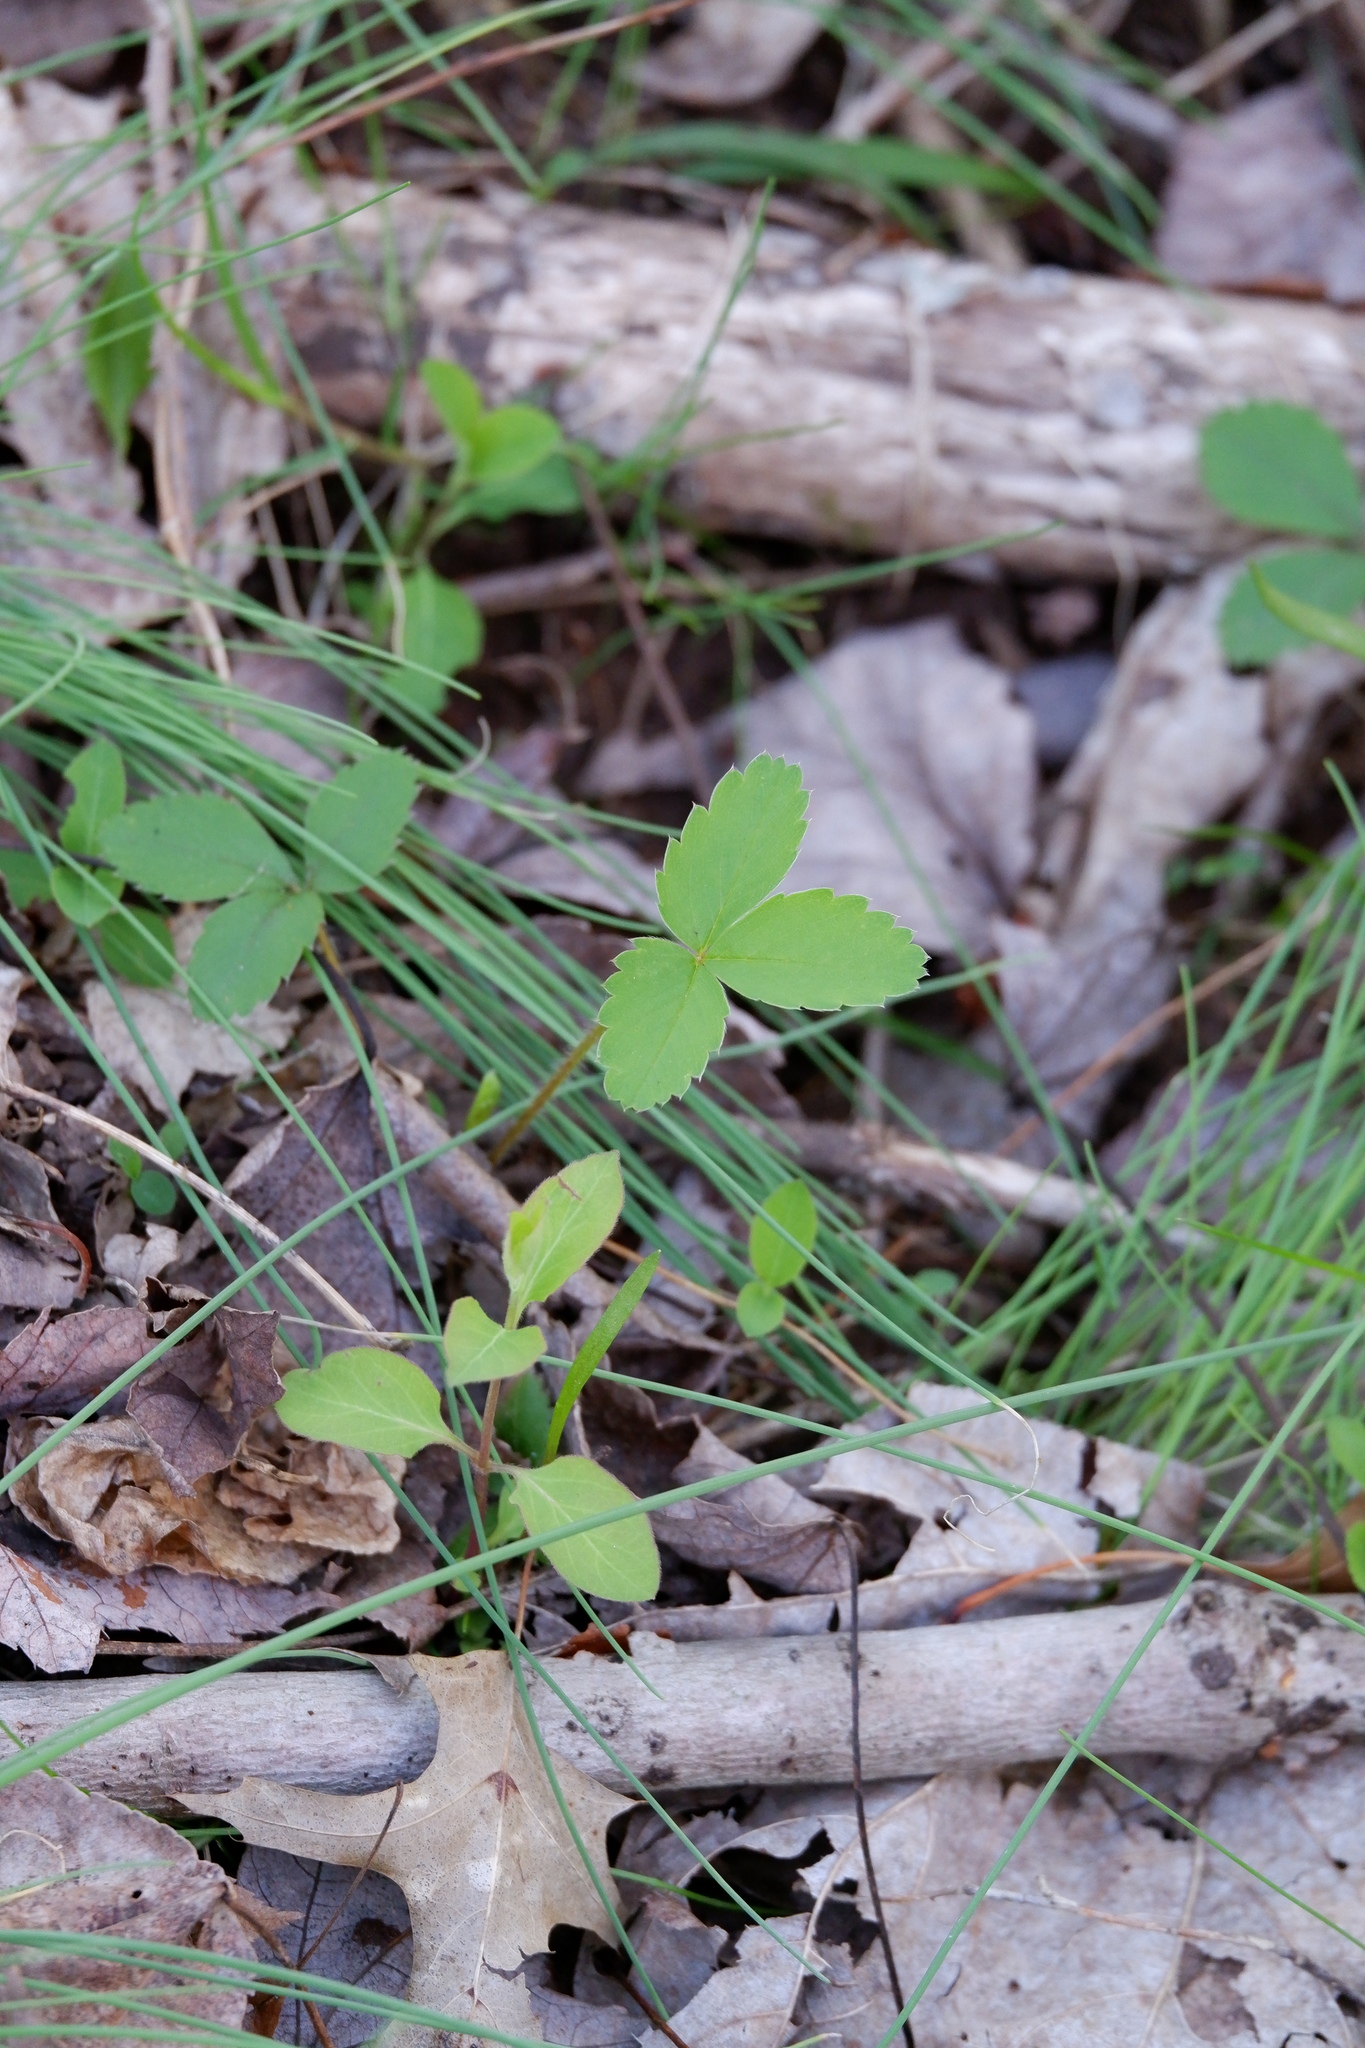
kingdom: Plantae
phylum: Tracheophyta
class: Magnoliopsida
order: Rosales
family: Rosaceae
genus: Fragaria
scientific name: Fragaria virginiana
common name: Thickleaved wild strawberry
